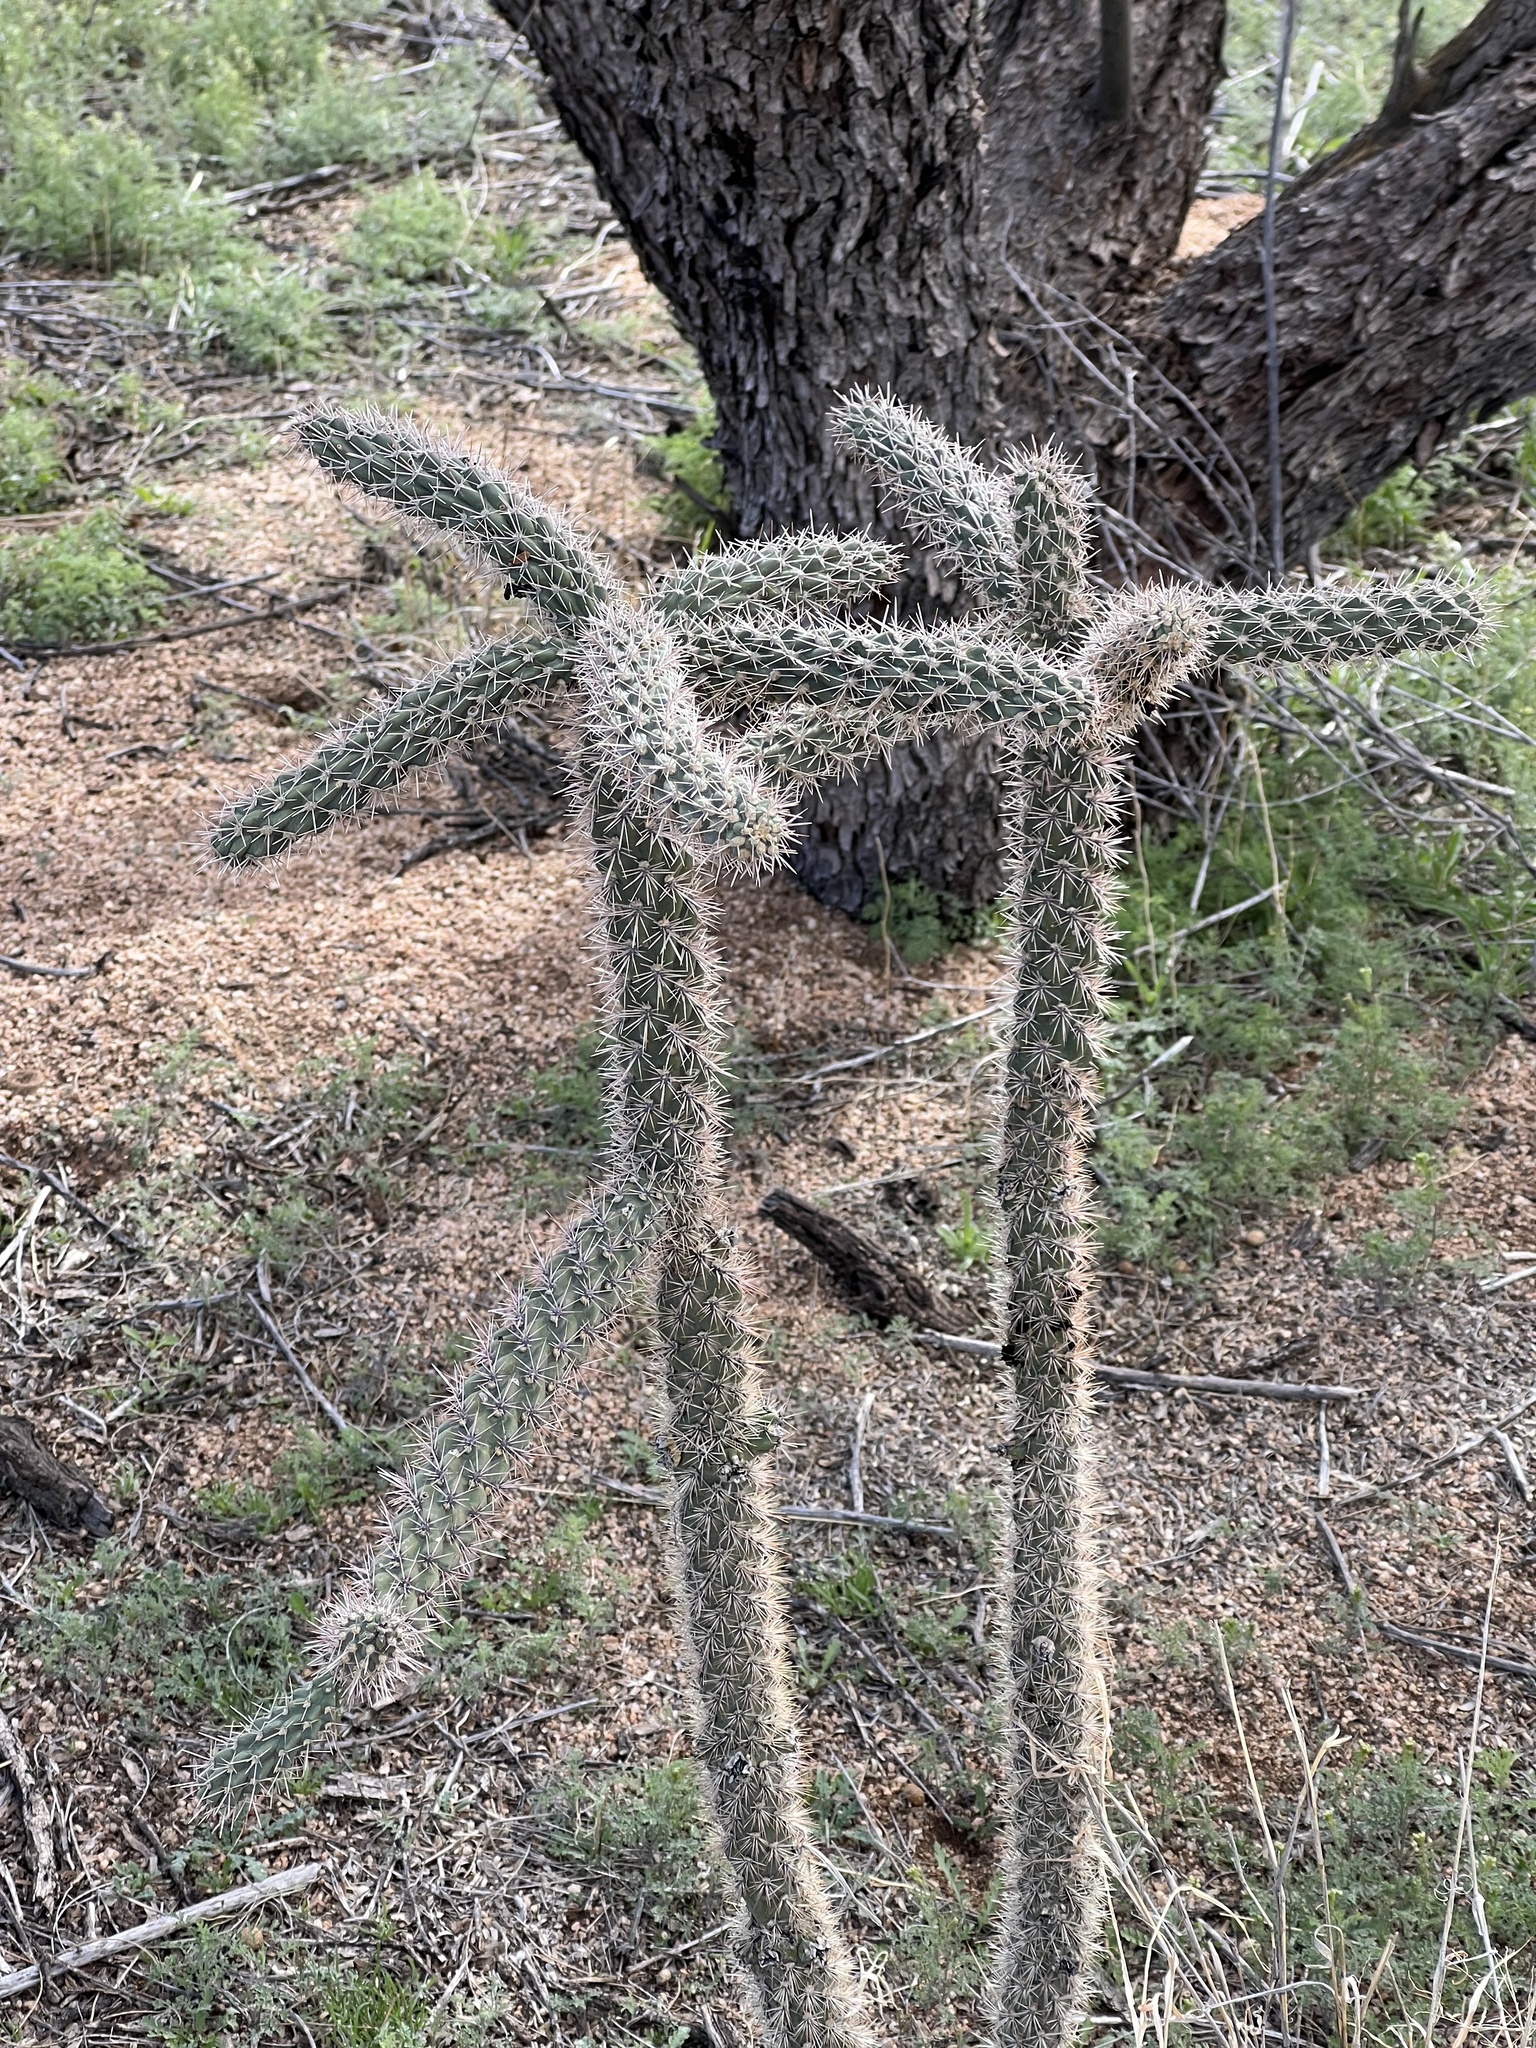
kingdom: Plantae
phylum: Tracheophyta
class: Magnoliopsida
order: Caryophyllales
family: Cactaceae
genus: Cylindropuntia
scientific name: Cylindropuntia imbricata
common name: Candelabrum cactus
